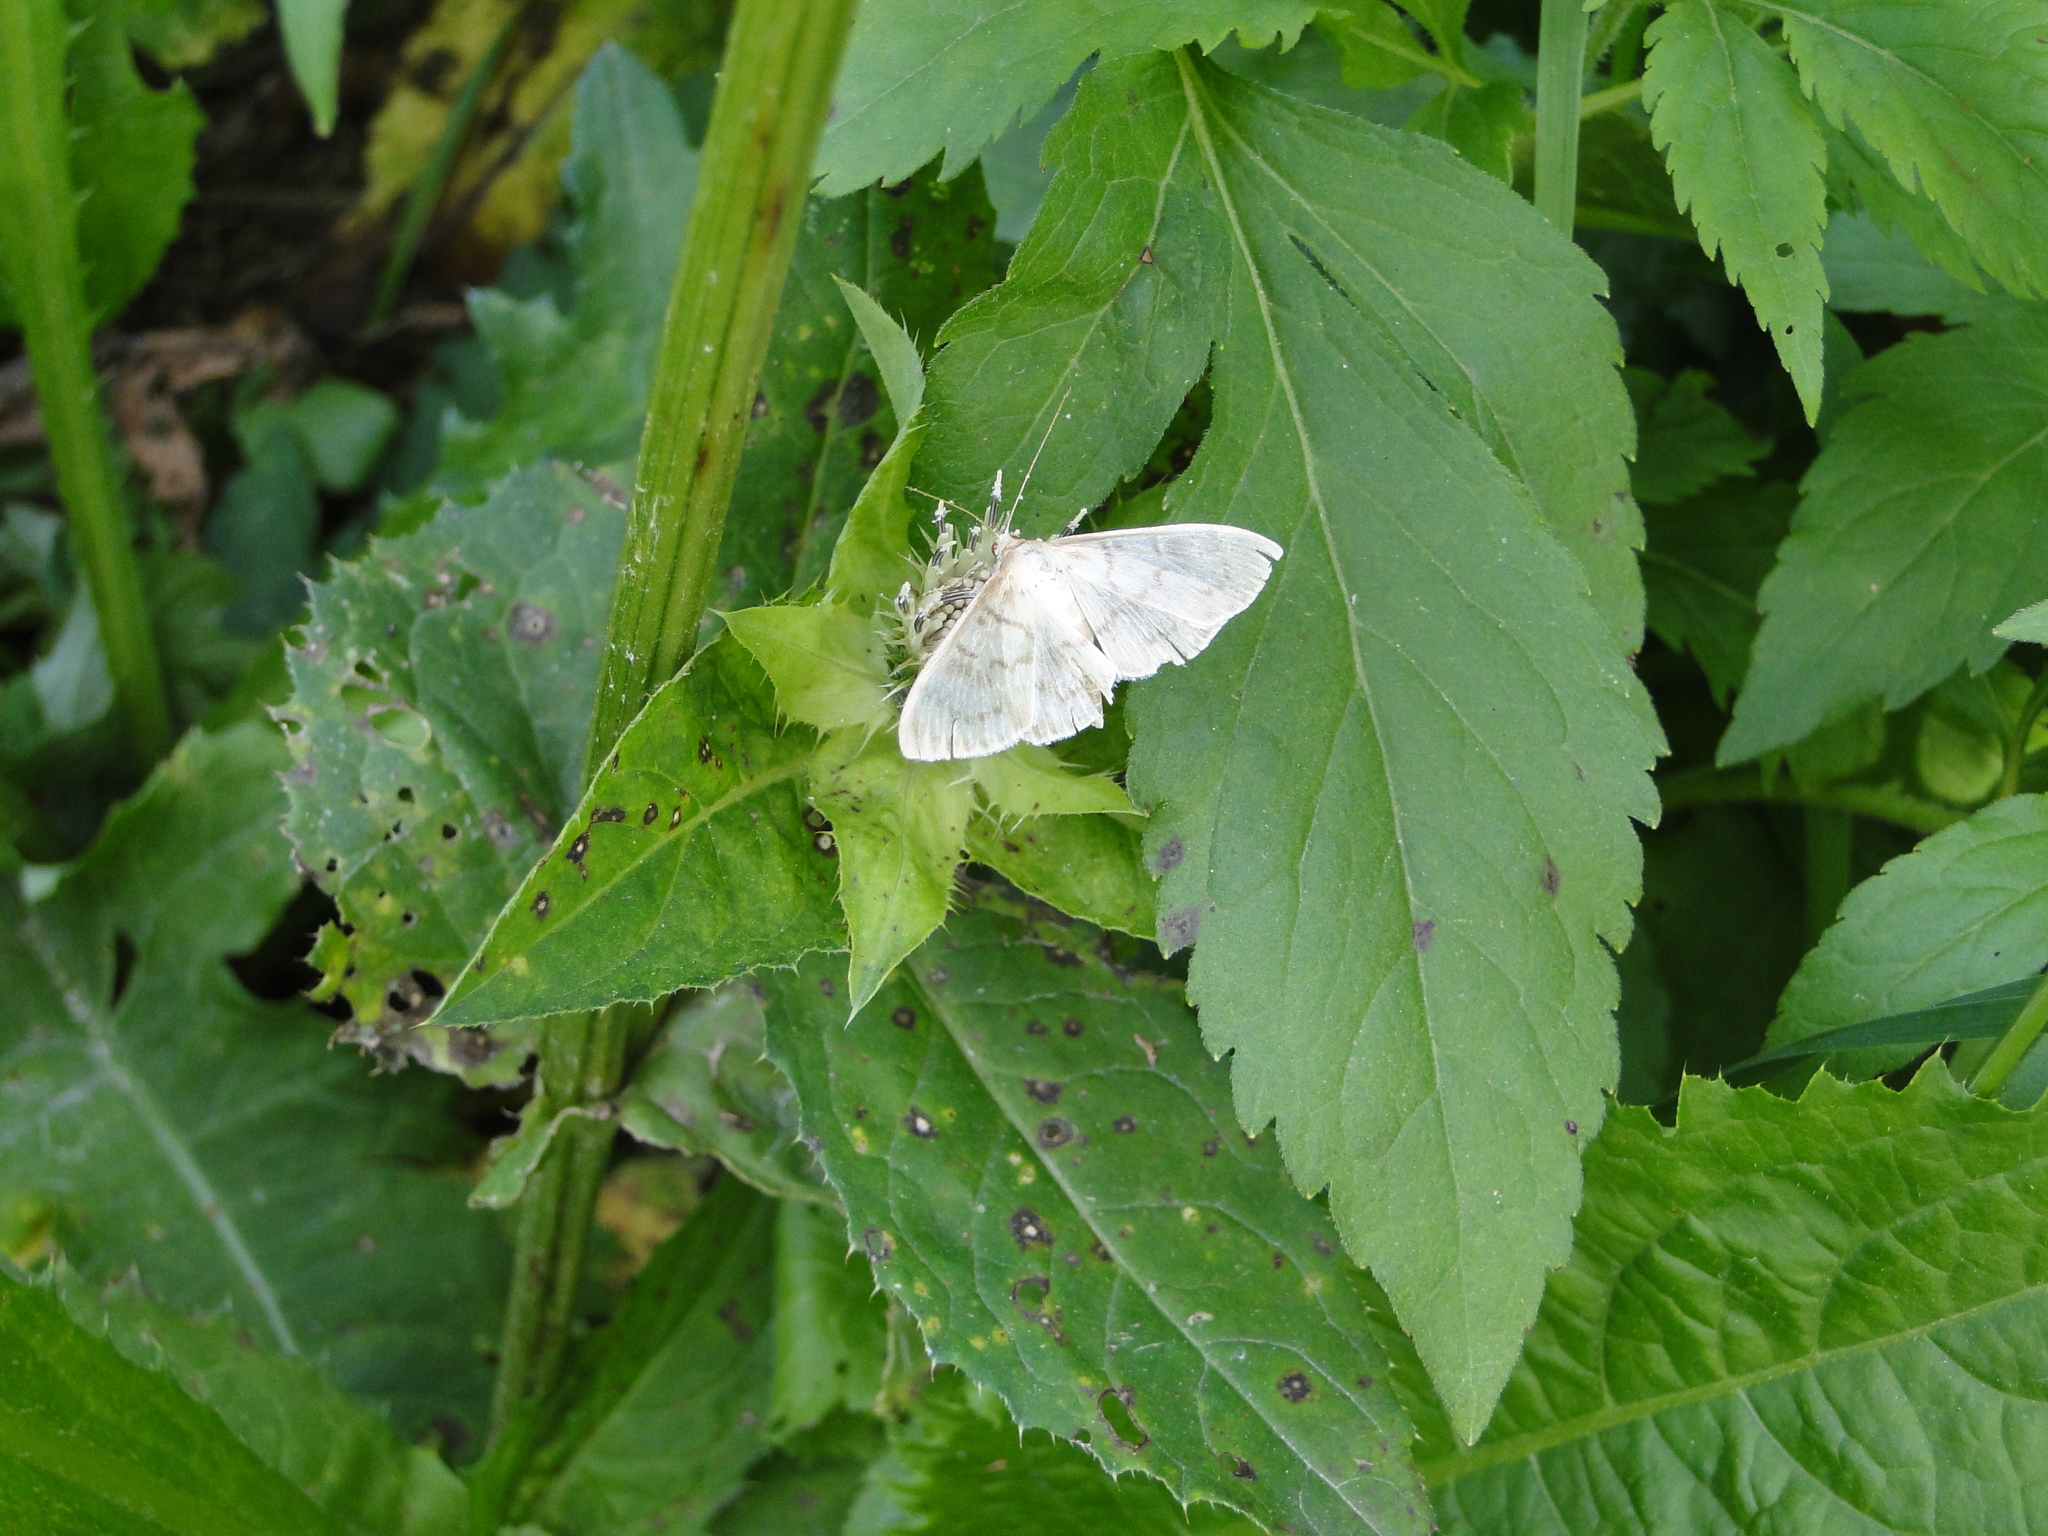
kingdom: Animalia
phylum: Arthropoda
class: Insecta
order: Lepidoptera
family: Crambidae
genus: Patania
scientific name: Patania ruralis
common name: Mother of pearl
